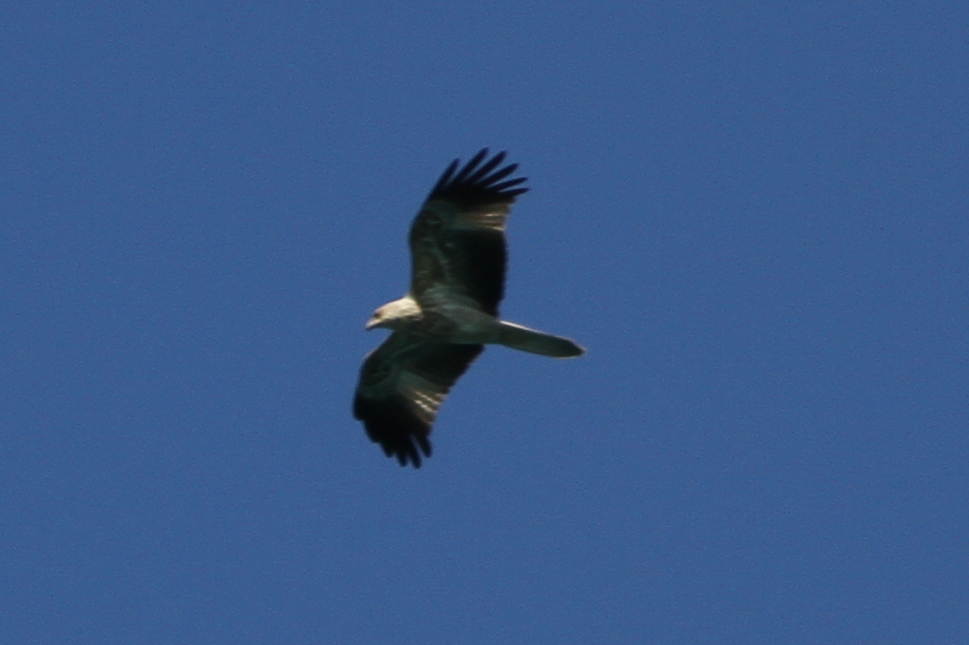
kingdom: Animalia
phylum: Chordata
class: Aves
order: Accipitriformes
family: Accipitridae
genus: Haliastur
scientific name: Haliastur sphenurus
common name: Whistling kite
